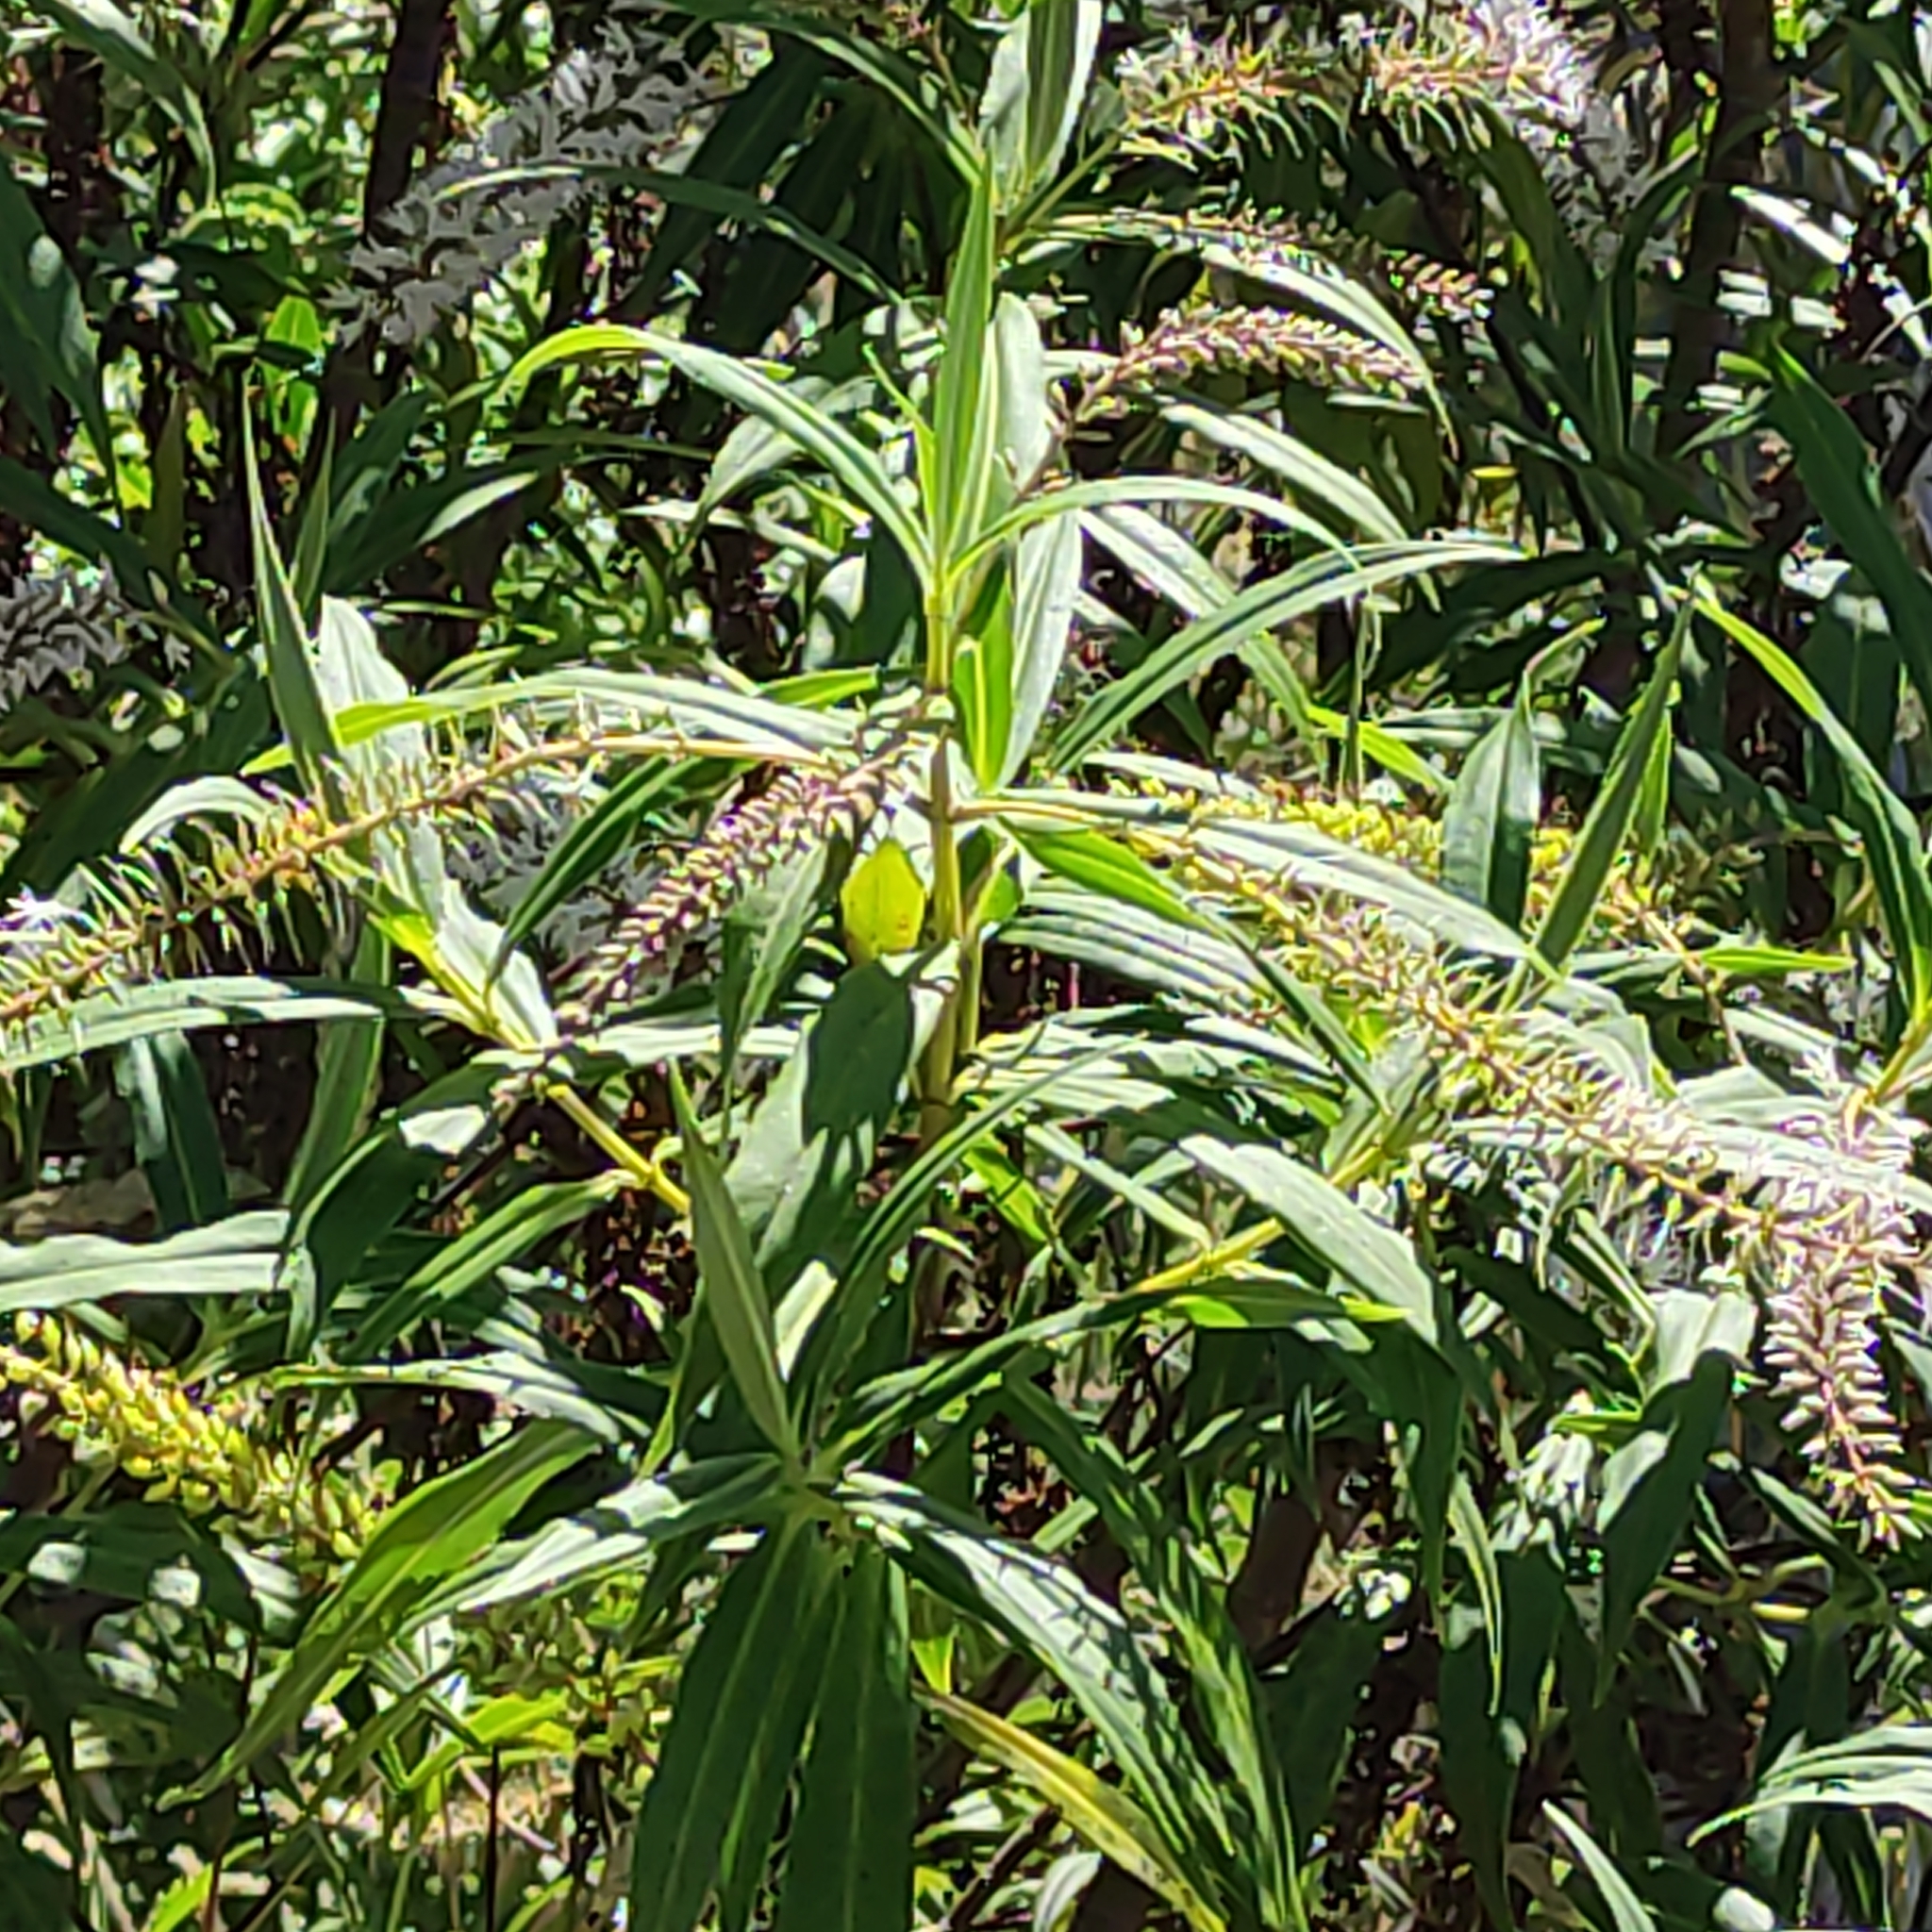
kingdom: Plantae
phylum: Tracheophyta
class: Magnoliopsida
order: Lamiales
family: Plantaginaceae
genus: Veronica
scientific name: Veronica salicifolia
